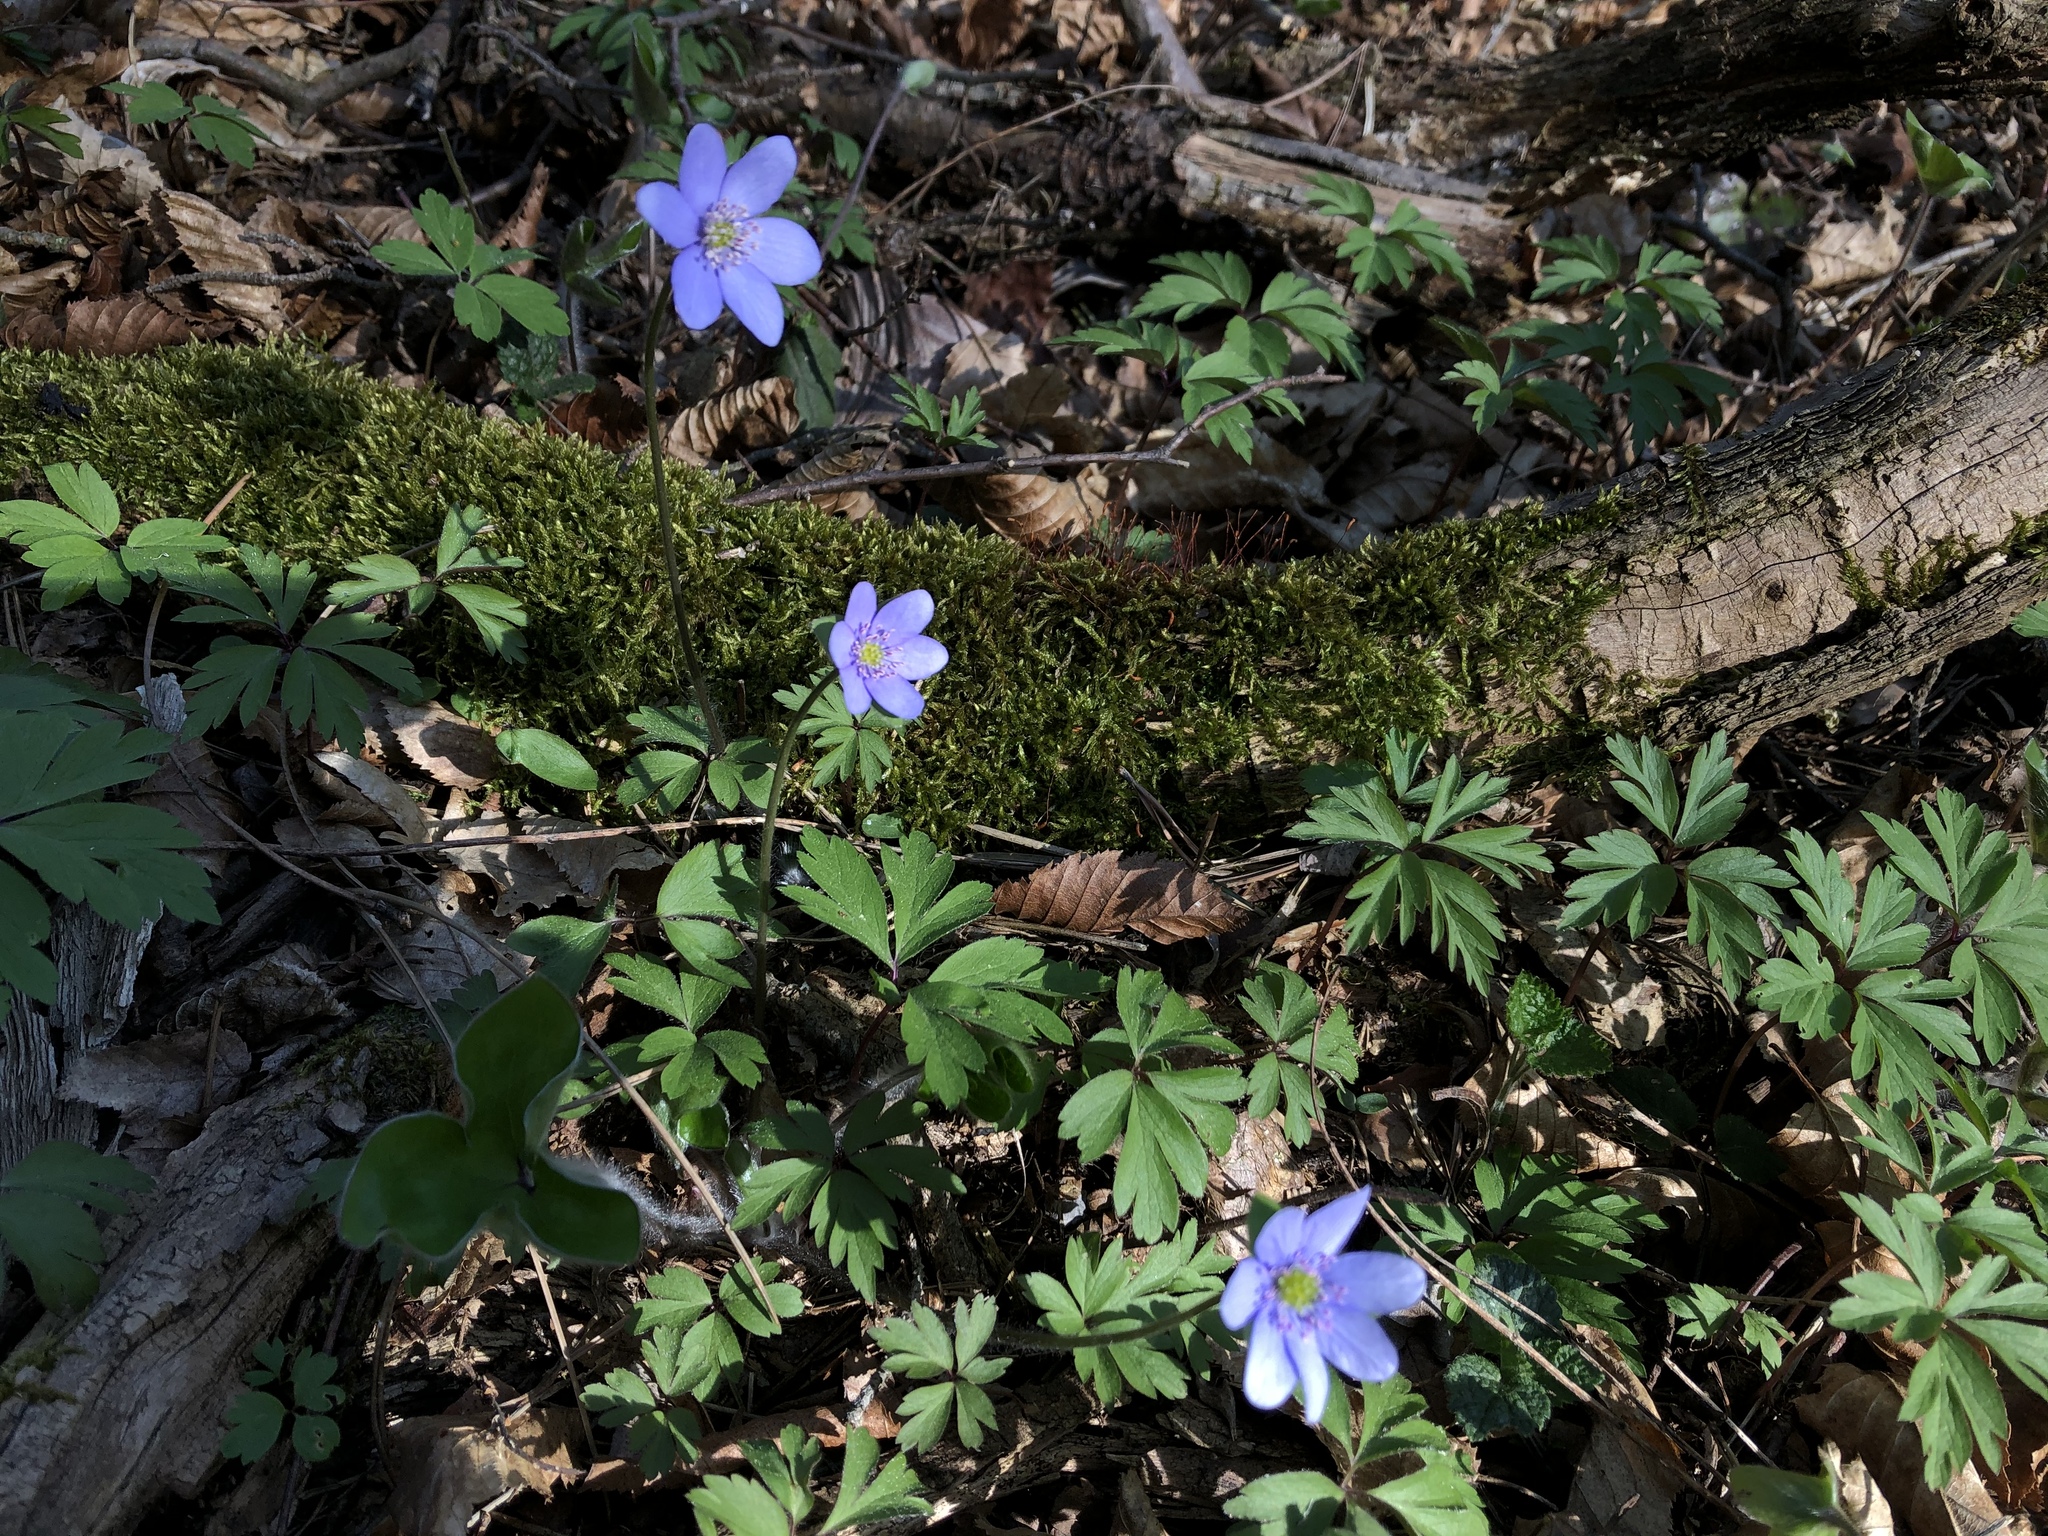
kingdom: Plantae
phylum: Tracheophyta
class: Magnoliopsida
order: Ranunculales
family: Ranunculaceae
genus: Hepatica
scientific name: Hepatica nobilis
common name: Liverleaf
